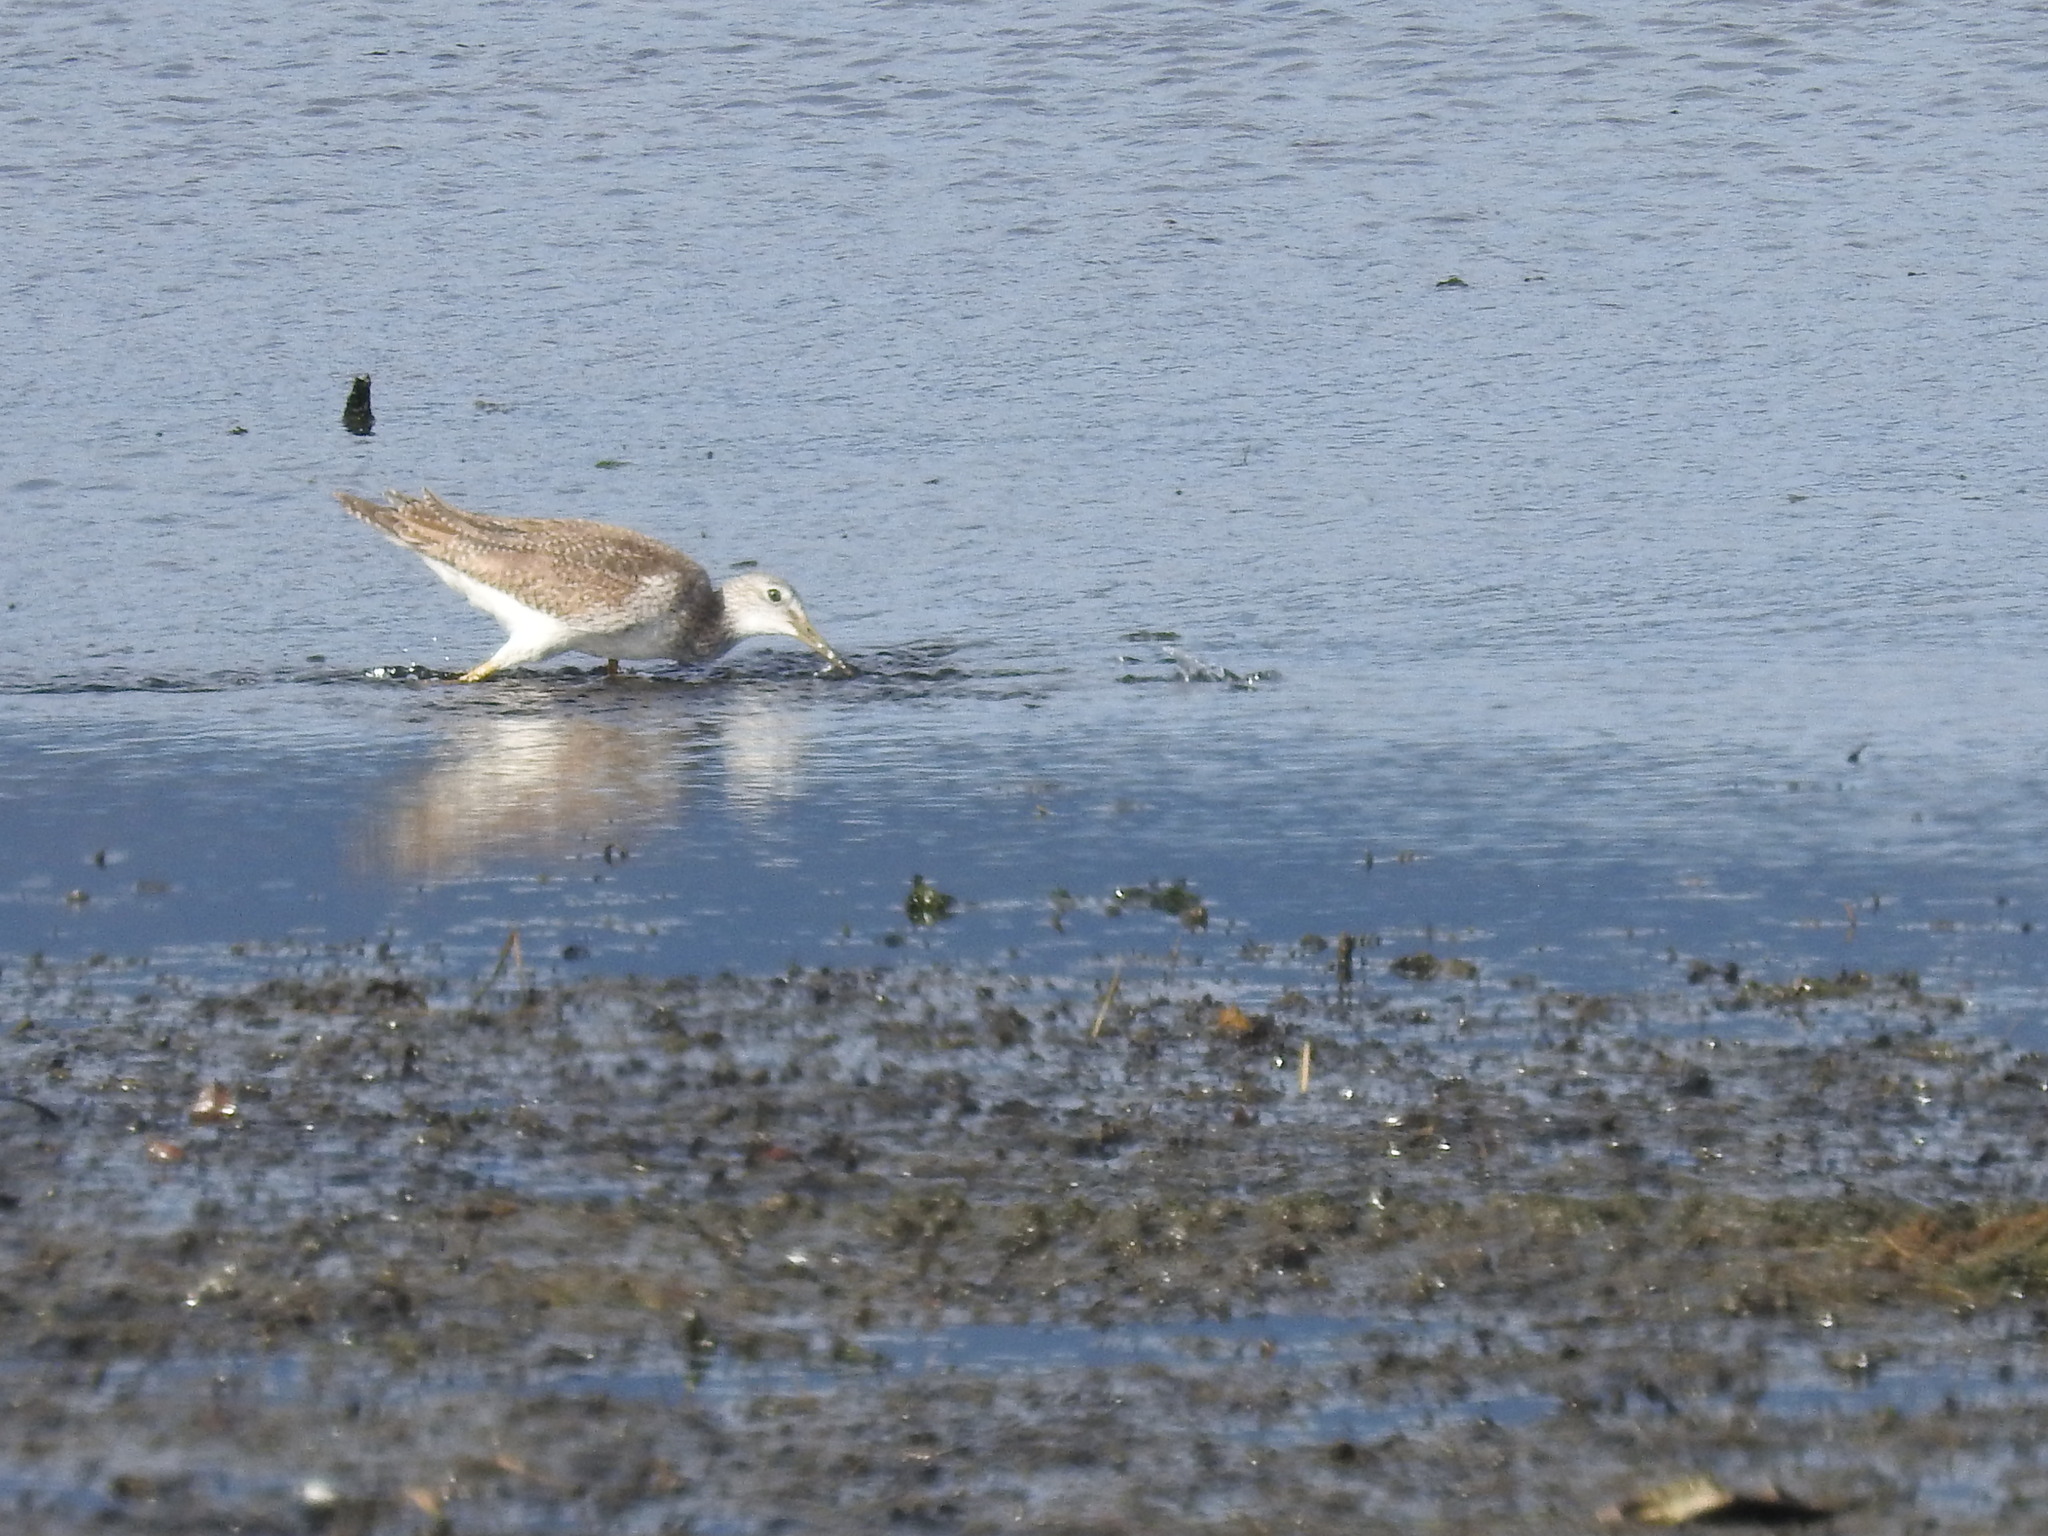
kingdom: Animalia
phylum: Chordata
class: Aves
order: Charadriiformes
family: Scolopacidae
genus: Tringa
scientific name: Tringa melanoleuca
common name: Greater yellowlegs
